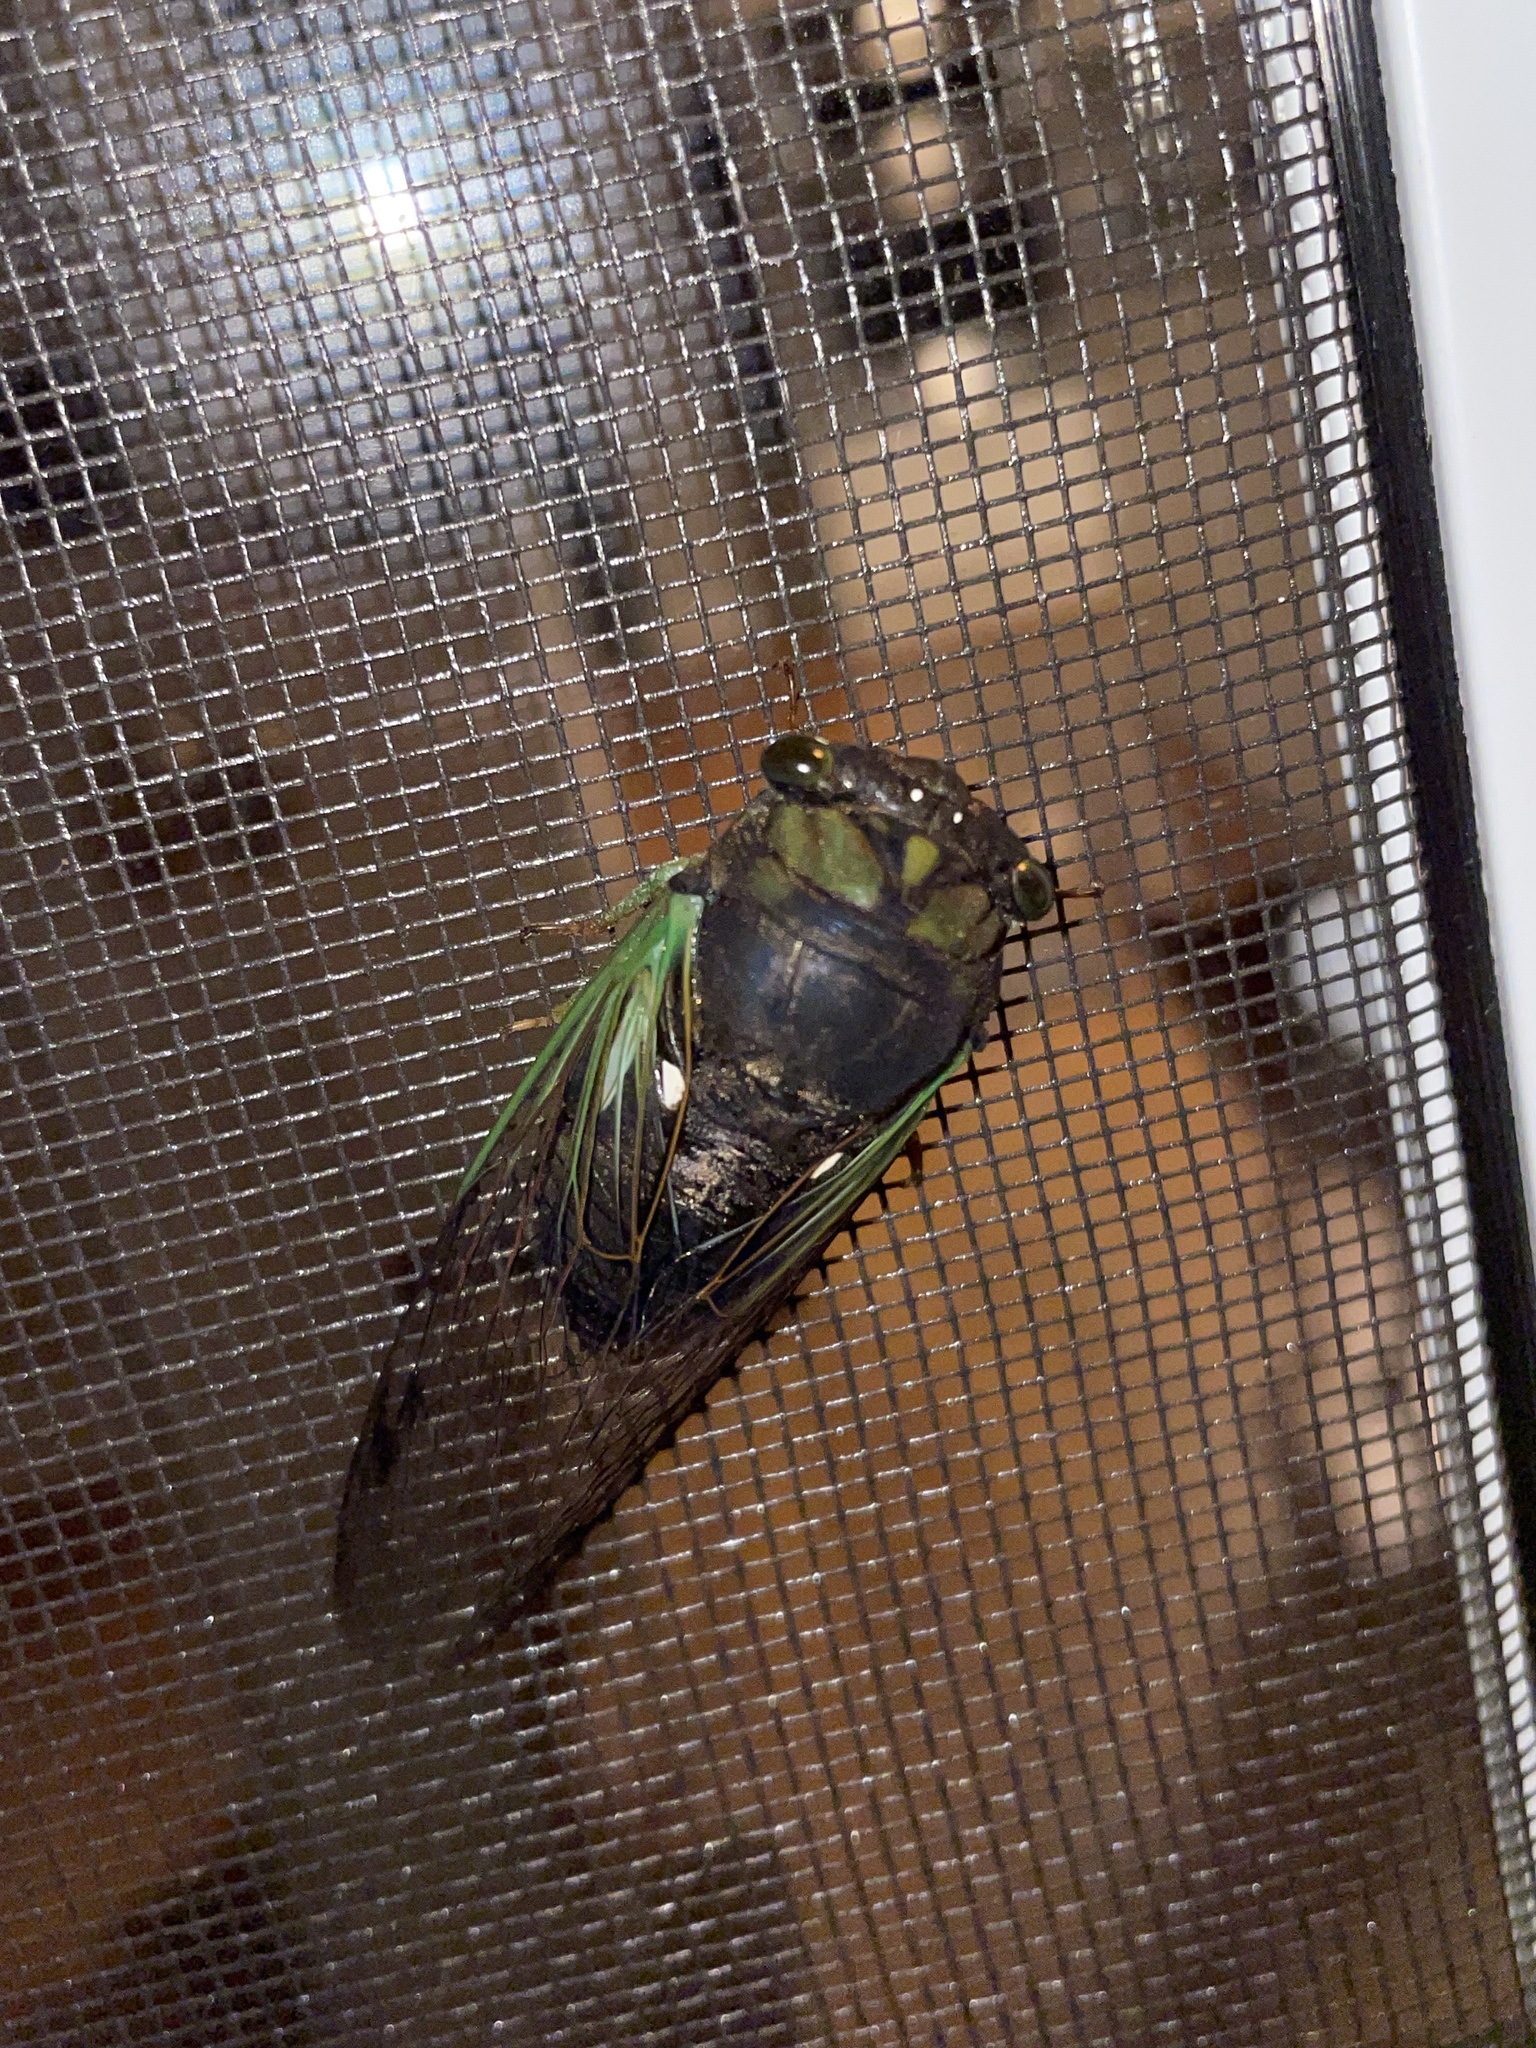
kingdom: Animalia
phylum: Arthropoda
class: Insecta
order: Hemiptera
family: Cicadidae
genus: Neotibicen
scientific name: Neotibicen tibicen
